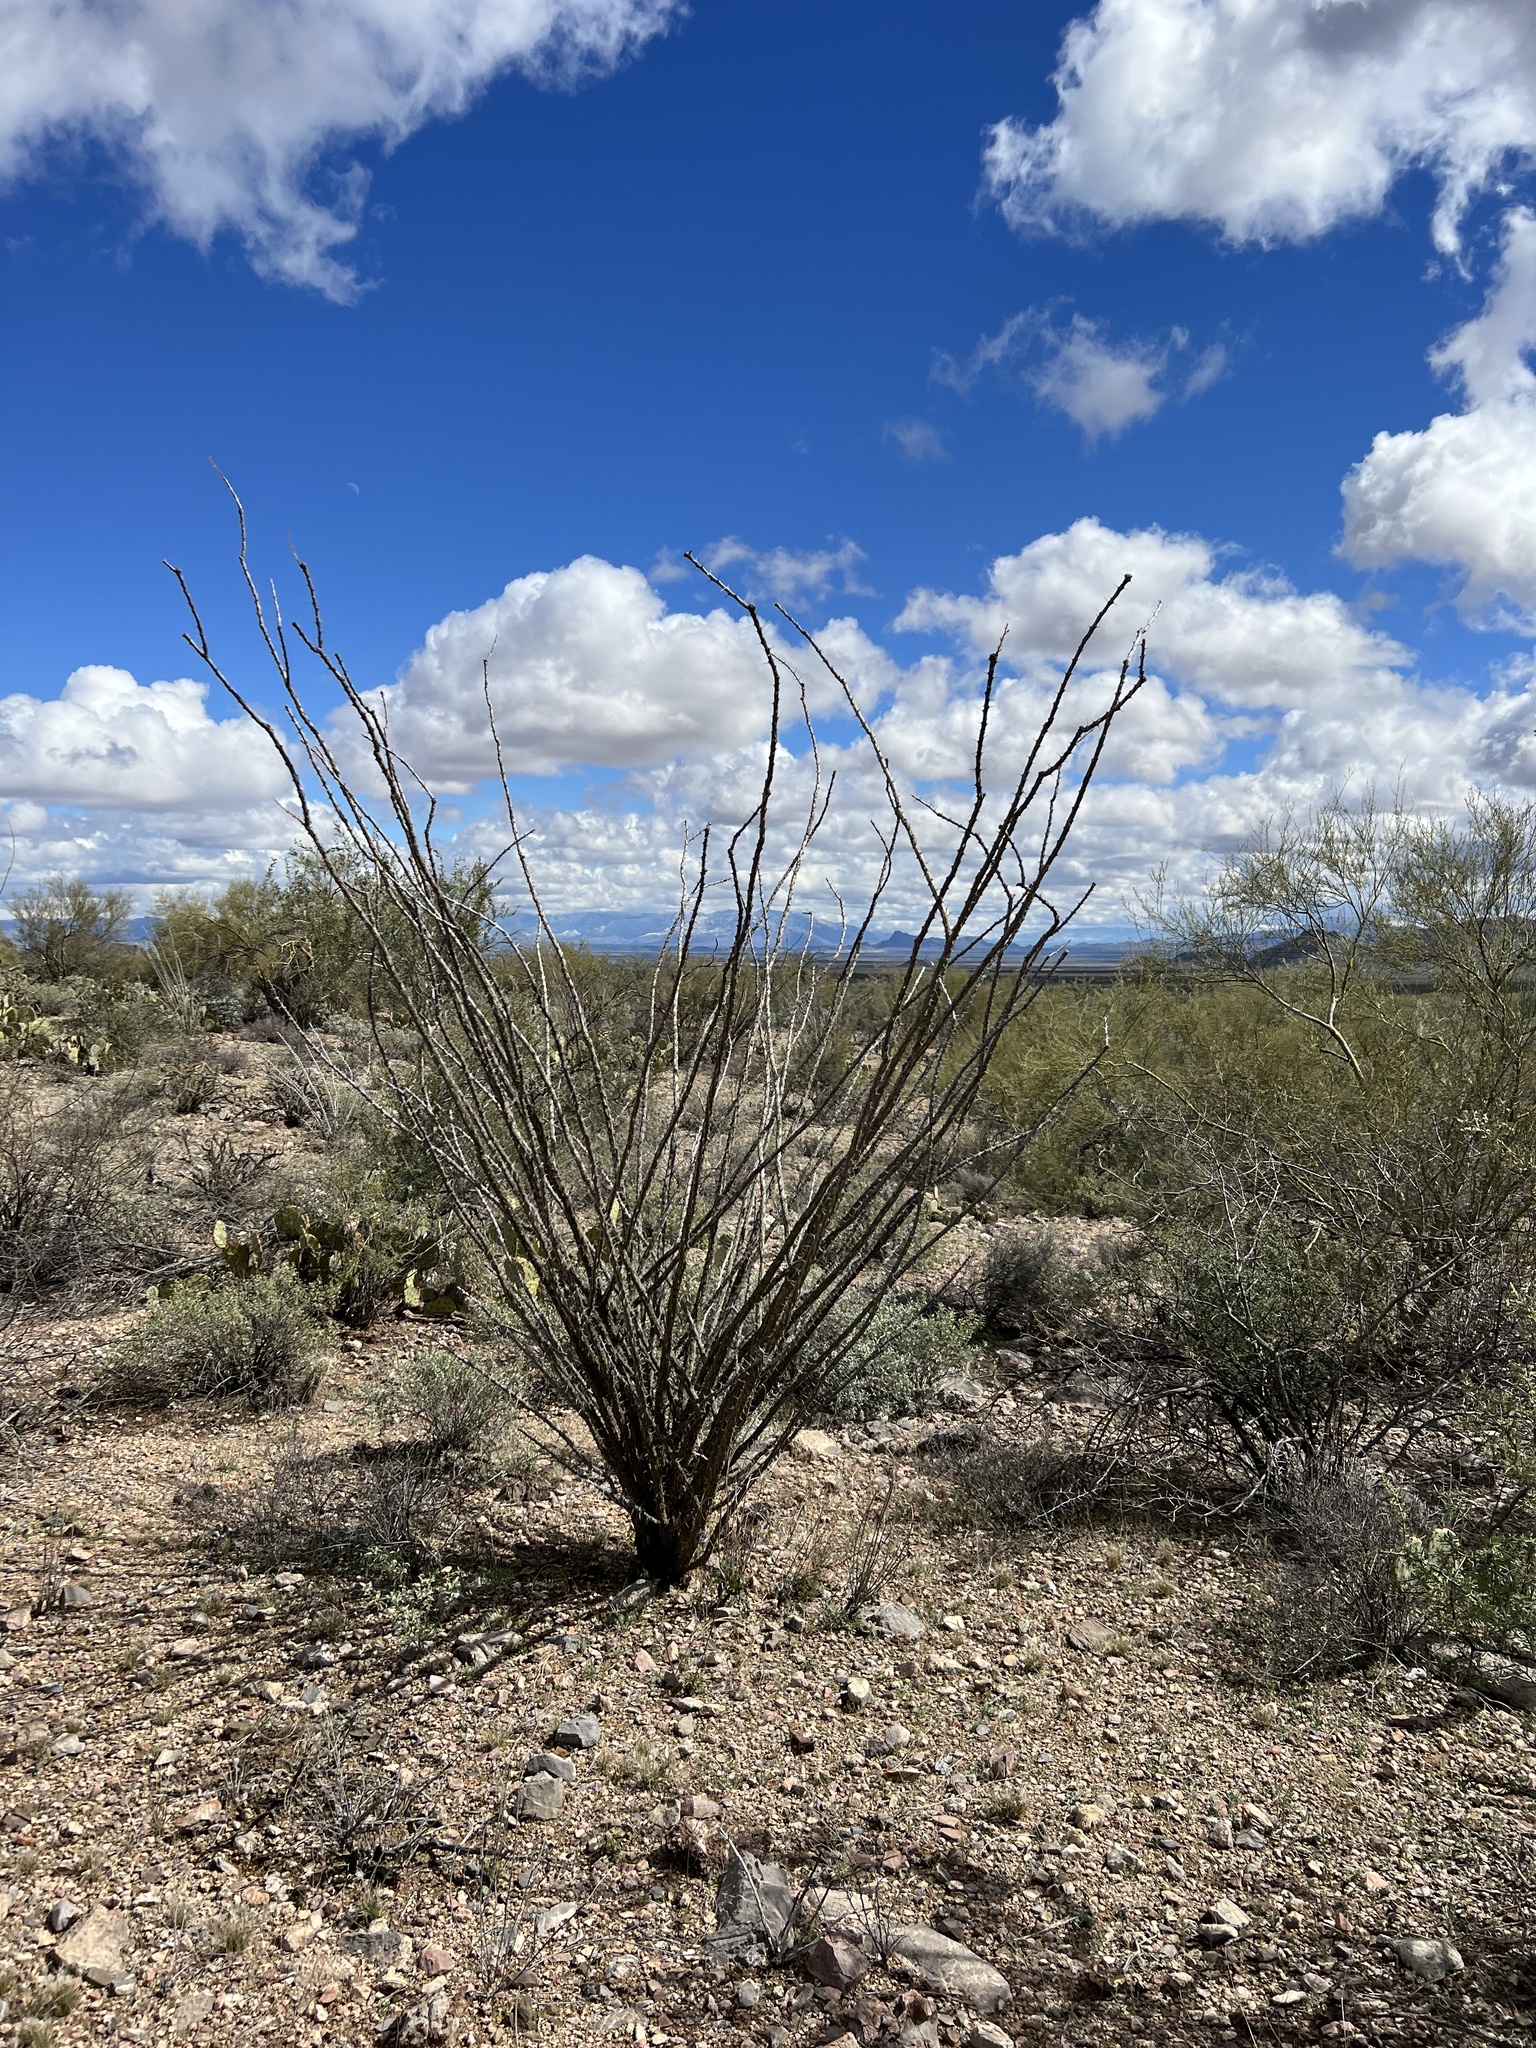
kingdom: Plantae
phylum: Tracheophyta
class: Magnoliopsida
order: Ericales
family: Fouquieriaceae
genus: Fouquieria
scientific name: Fouquieria splendens
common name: Vine-cactus
